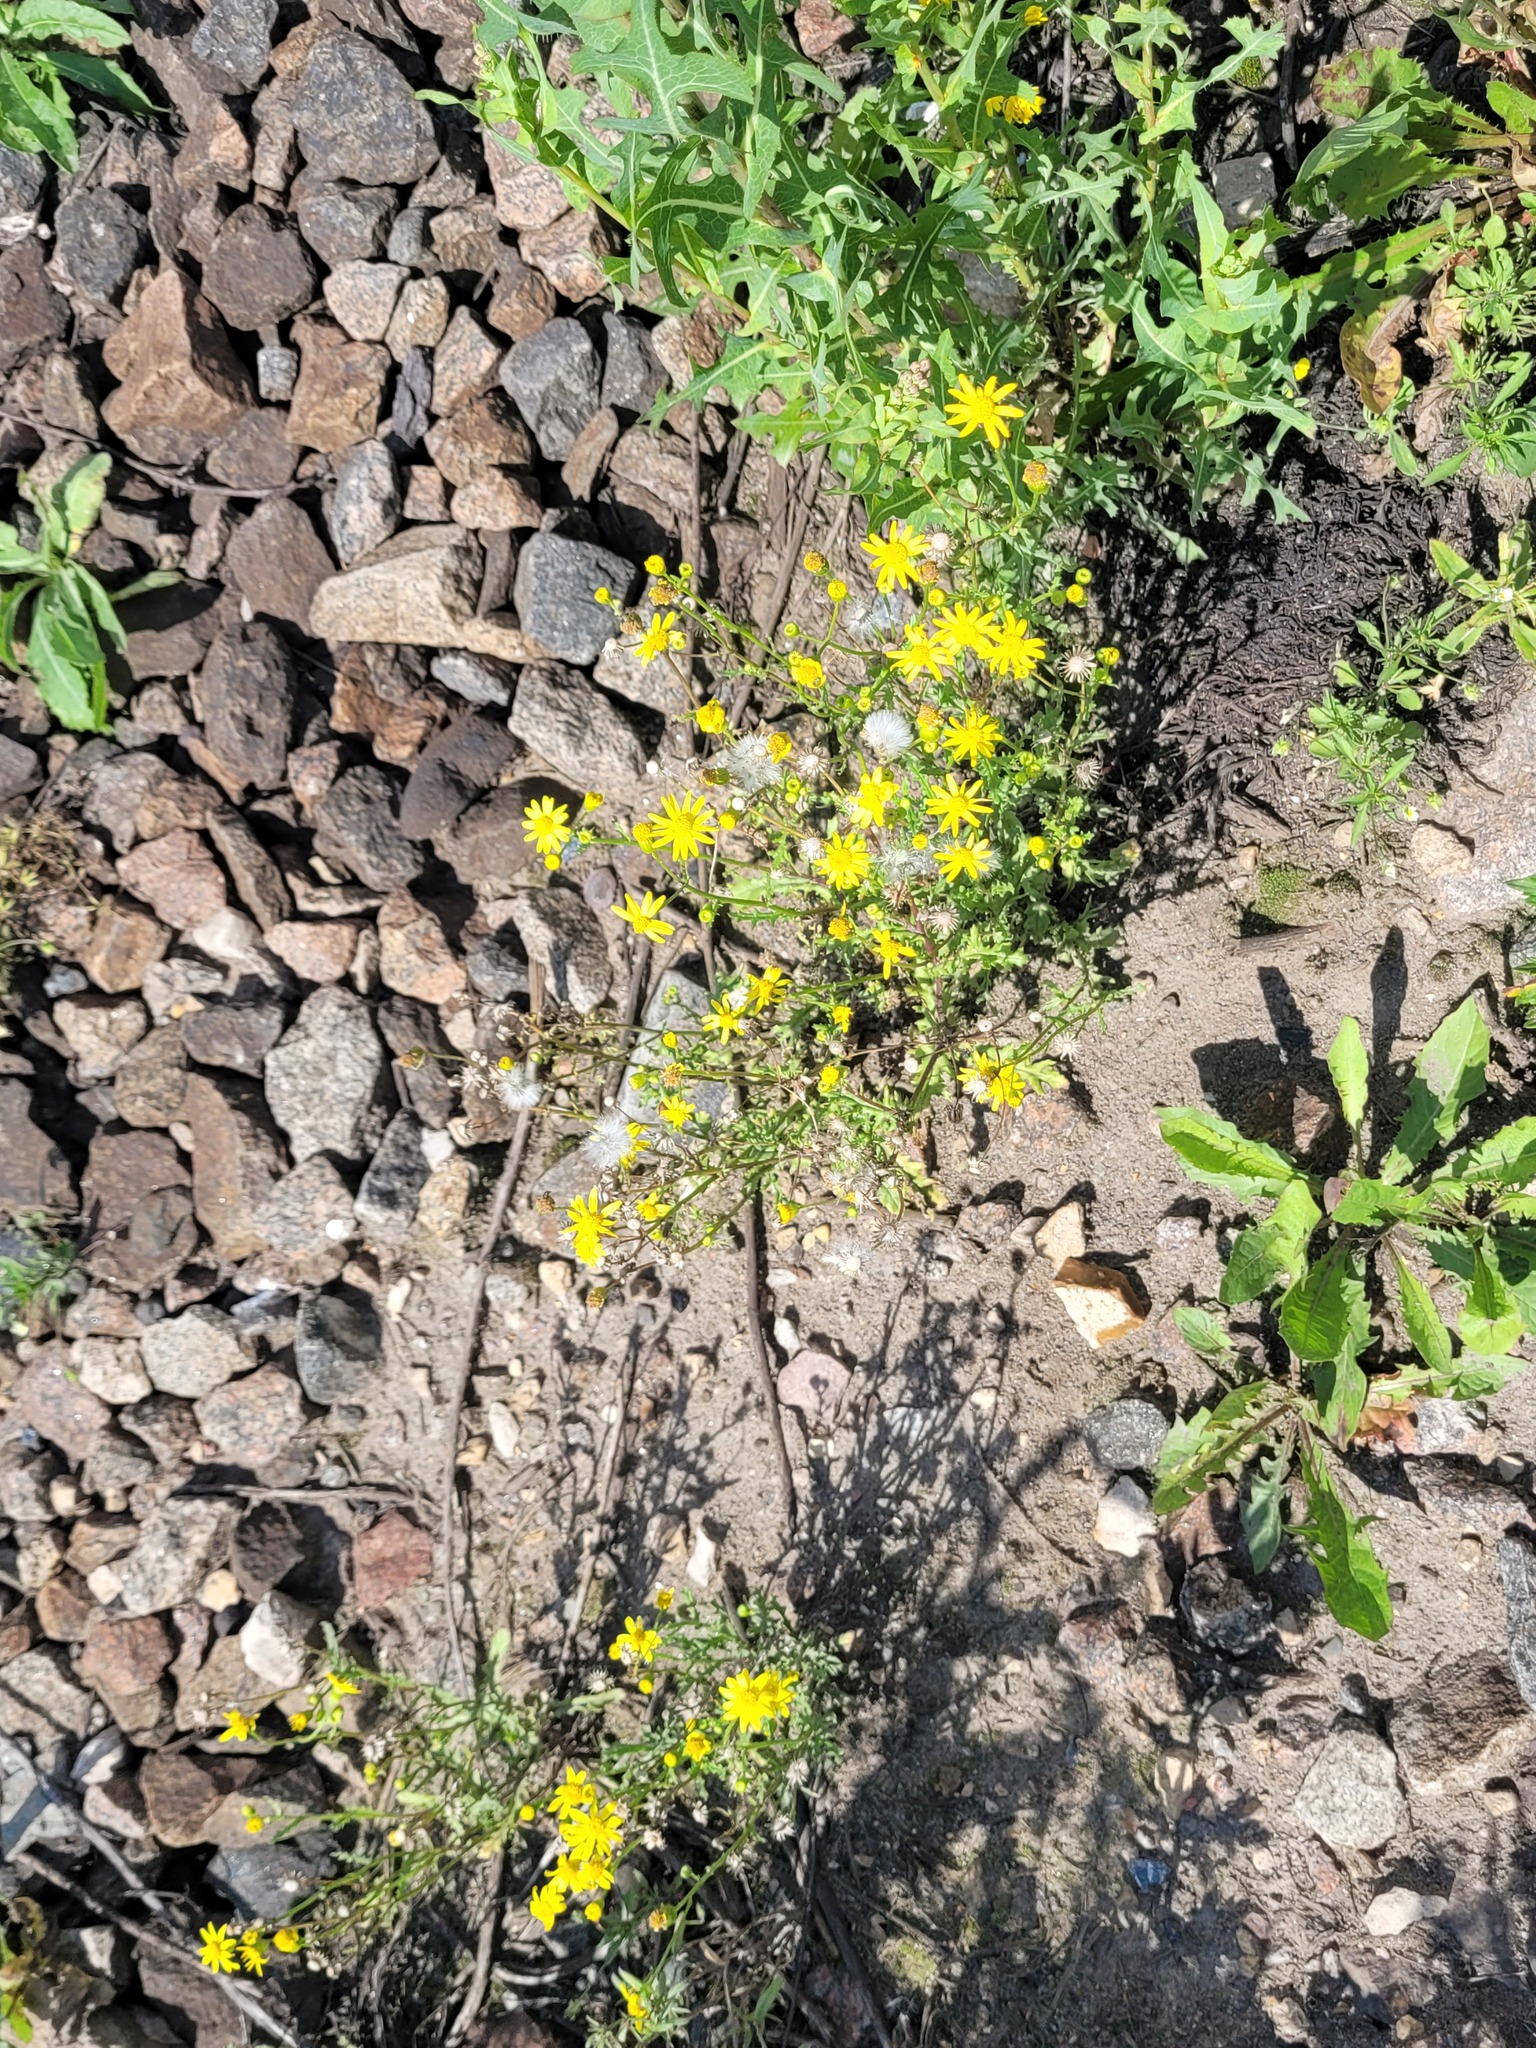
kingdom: Plantae
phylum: Tracheophyta
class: Magnoliopsida
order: Asterales
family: Asteraceae
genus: Senecio
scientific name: Senecio vernalis
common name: Eastern groundsel
